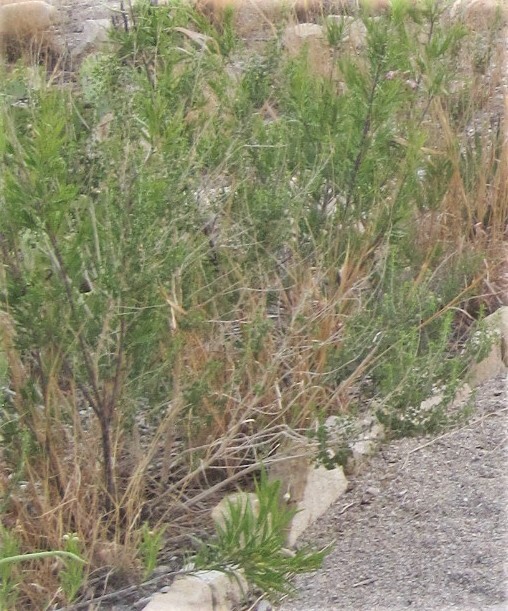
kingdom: Plantae
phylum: Tracheophyta
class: Magnoliopsida
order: Lamiales
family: Bignoniaceae
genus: Chilopsis
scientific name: Chilopsis linearis
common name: Desert-willow
